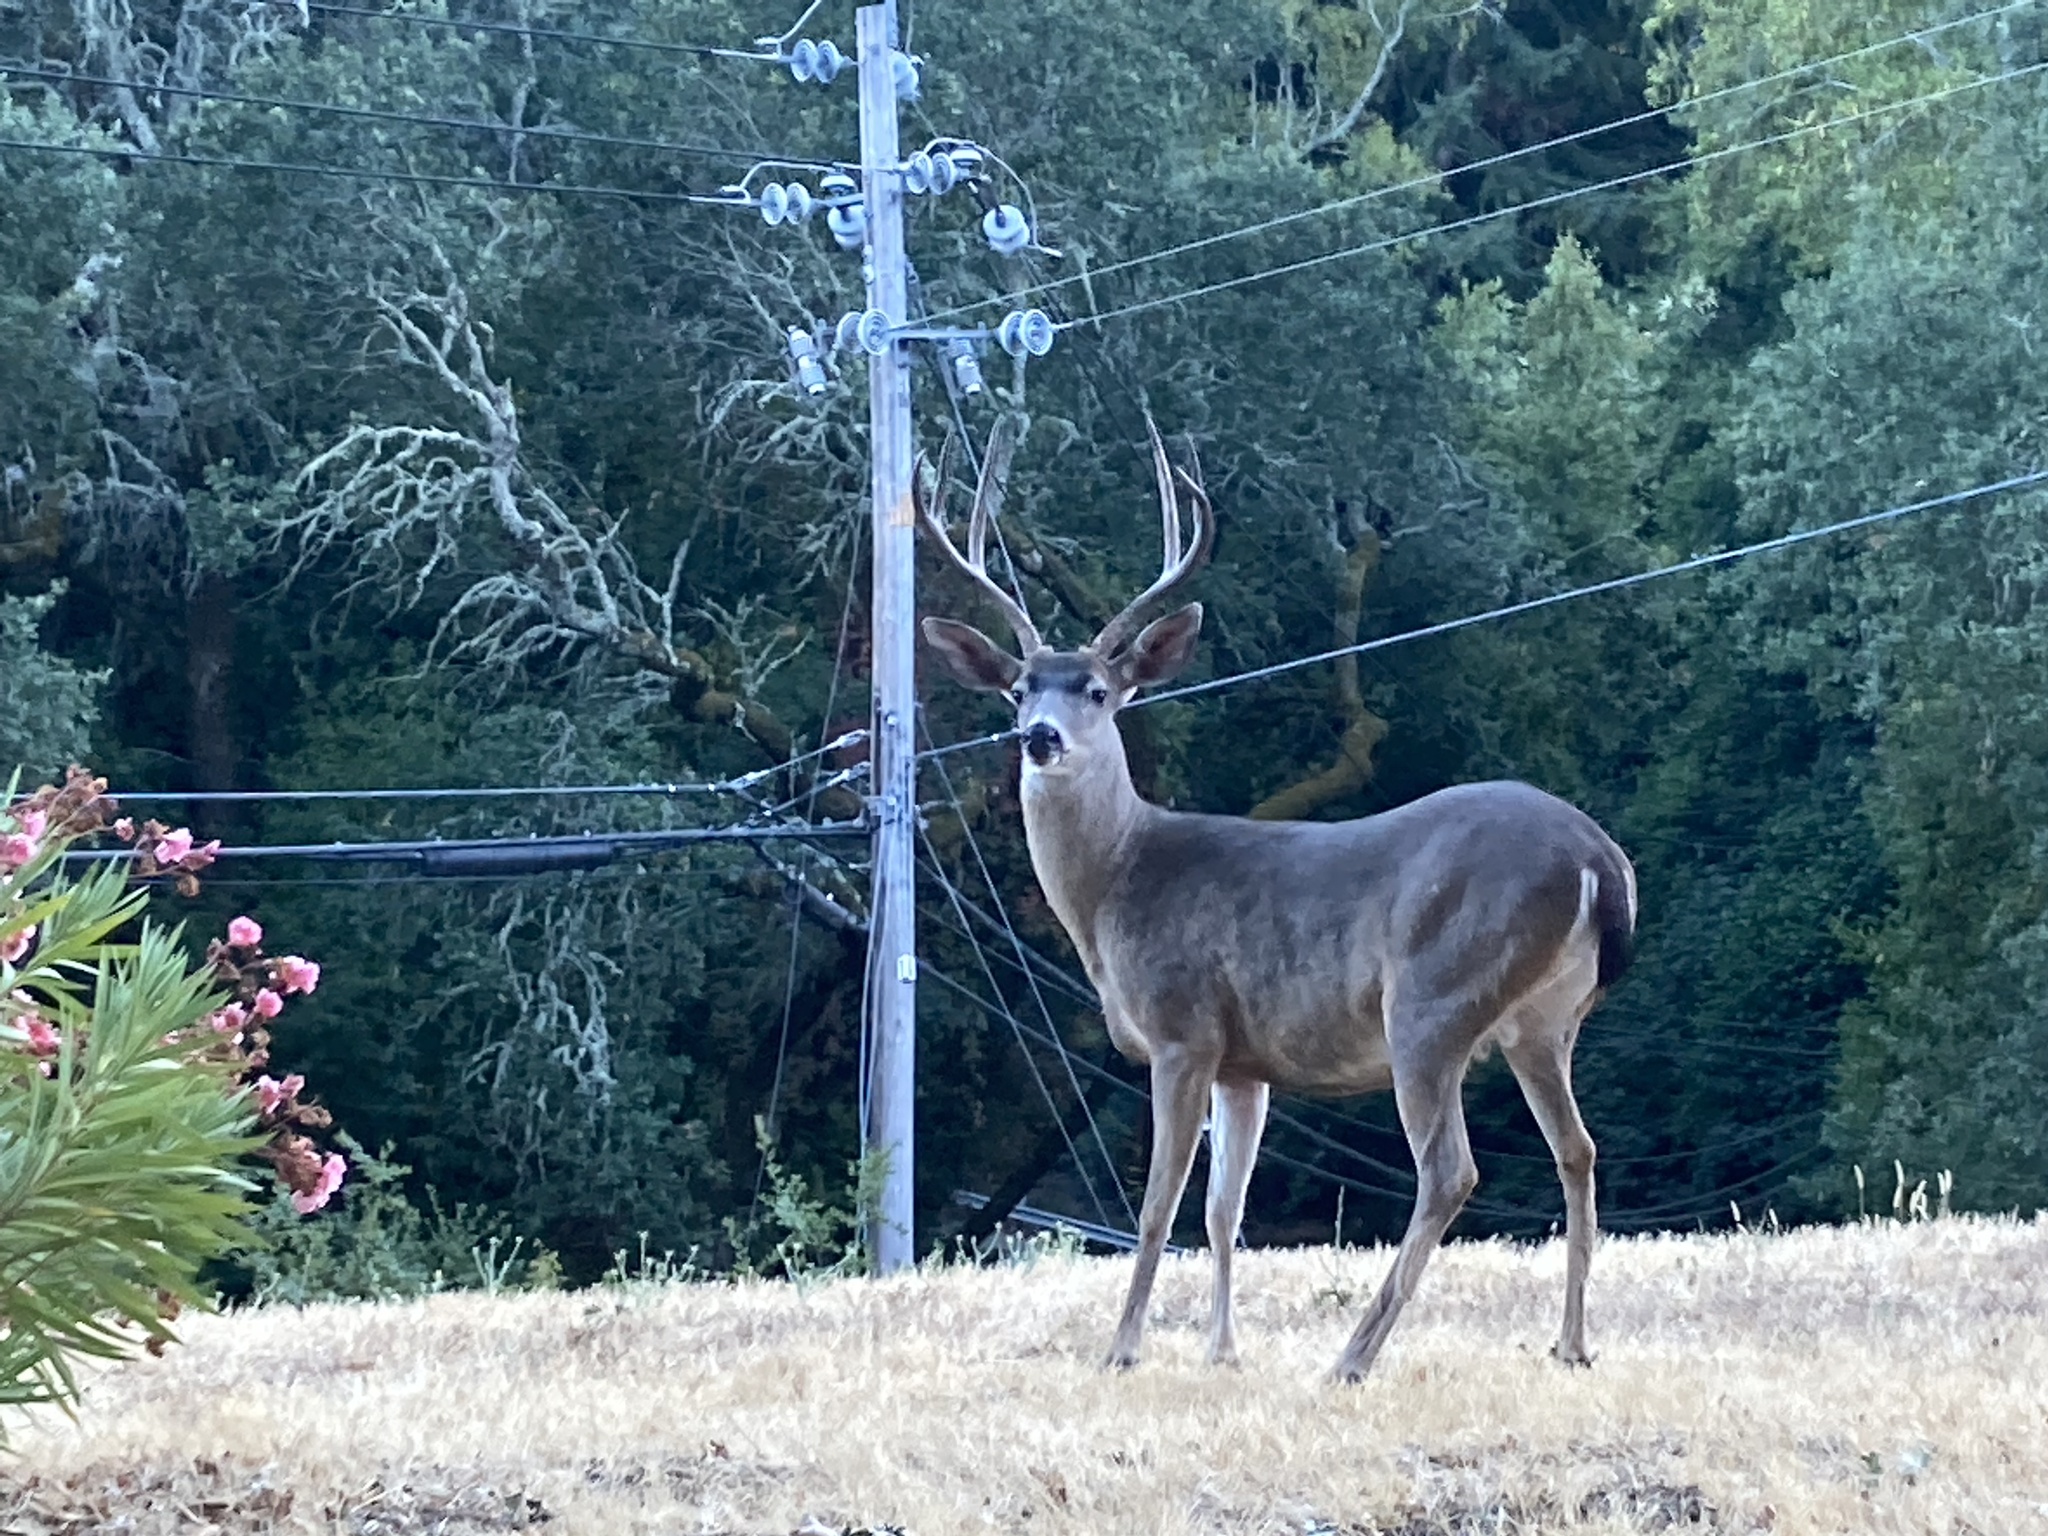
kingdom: Animalia
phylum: Chordata
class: Mammalia
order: Artiodactyla
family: Cervidae
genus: Odocoileus
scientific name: Odocoileus hemionus
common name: Mule deer
